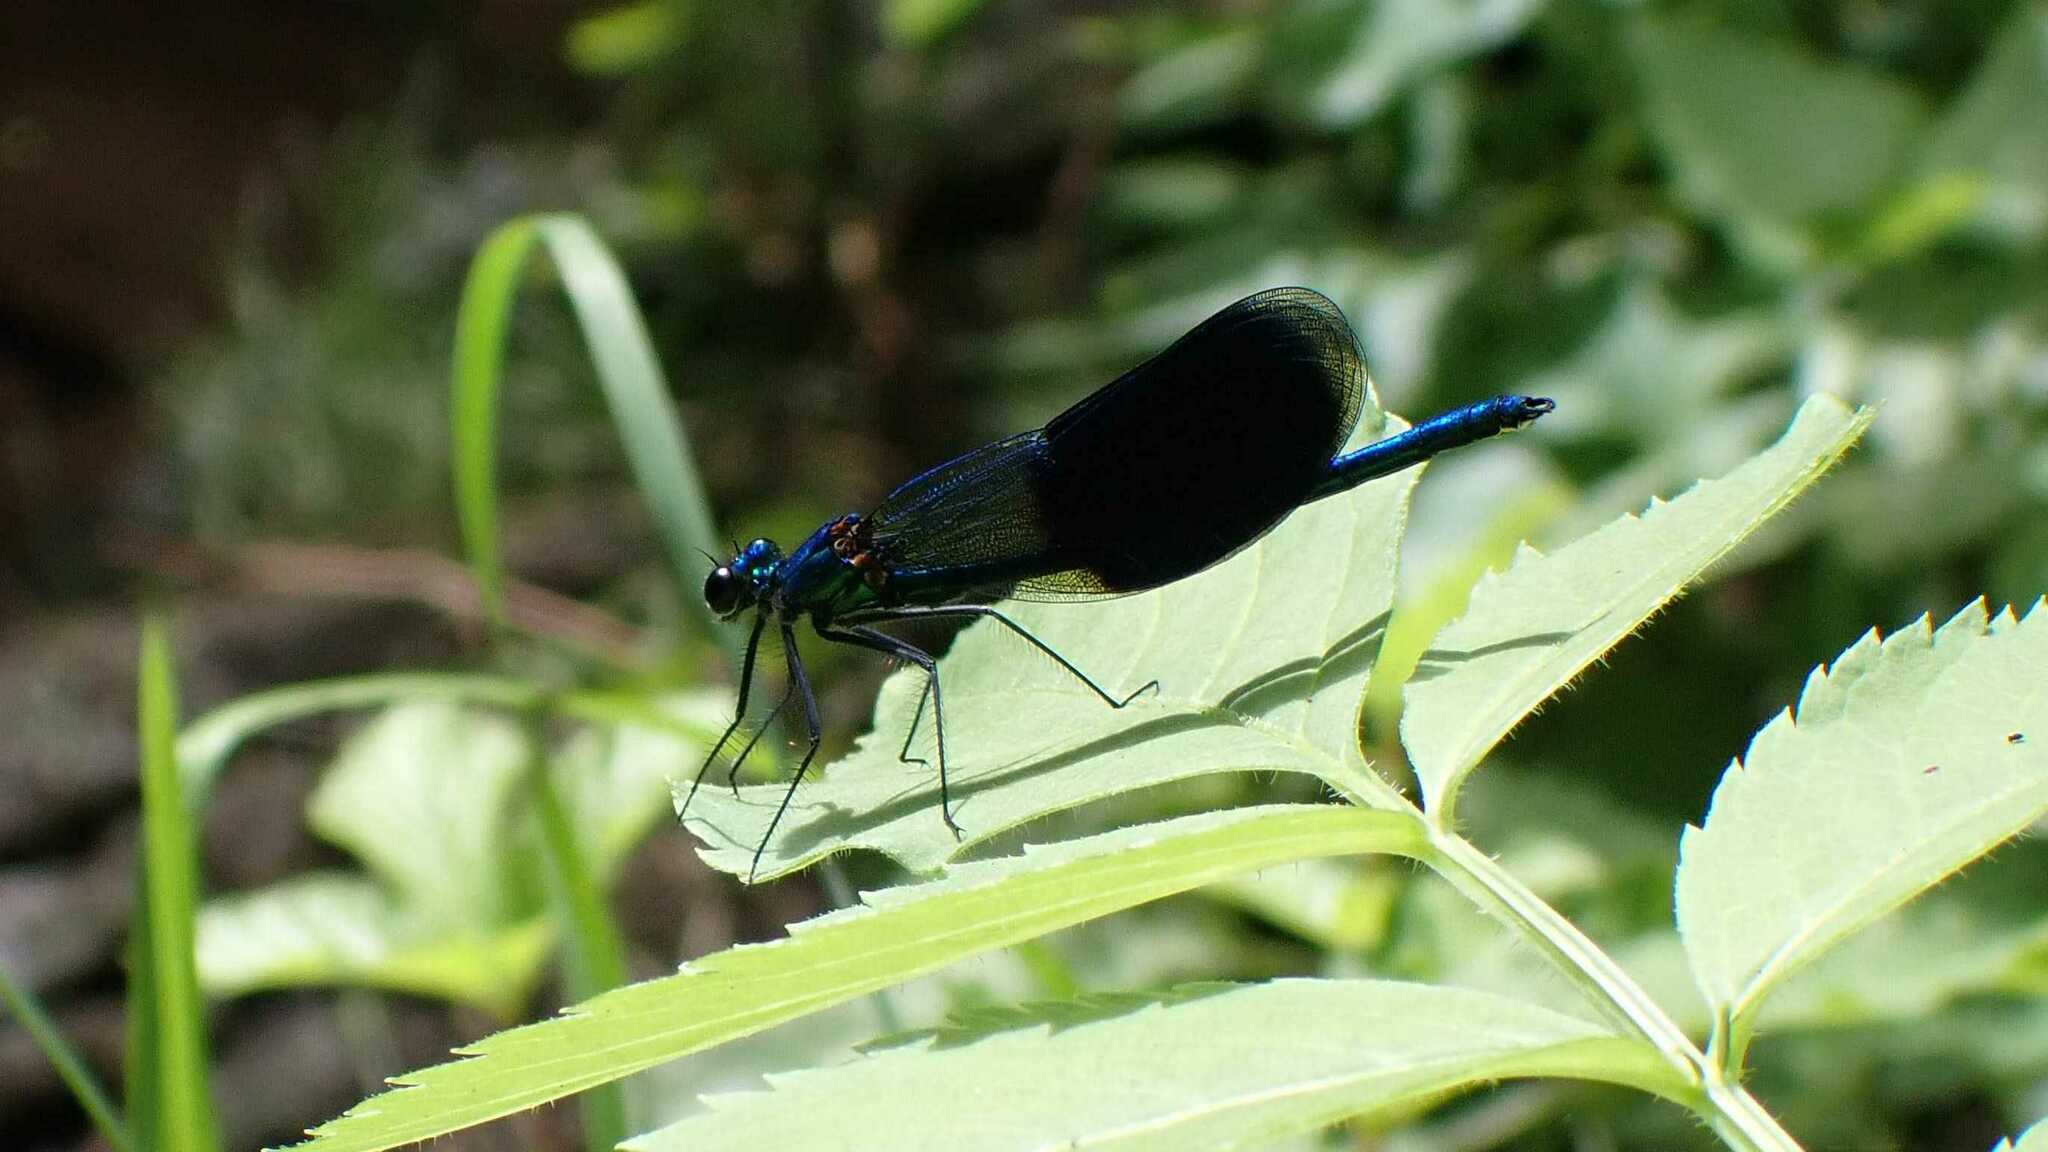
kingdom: Animalia
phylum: Arthropoda
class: Insecta
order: Odonata
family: Calopterygidae
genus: Calopteryx
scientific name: Calopteryx splendens
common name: Banded demoiselle
